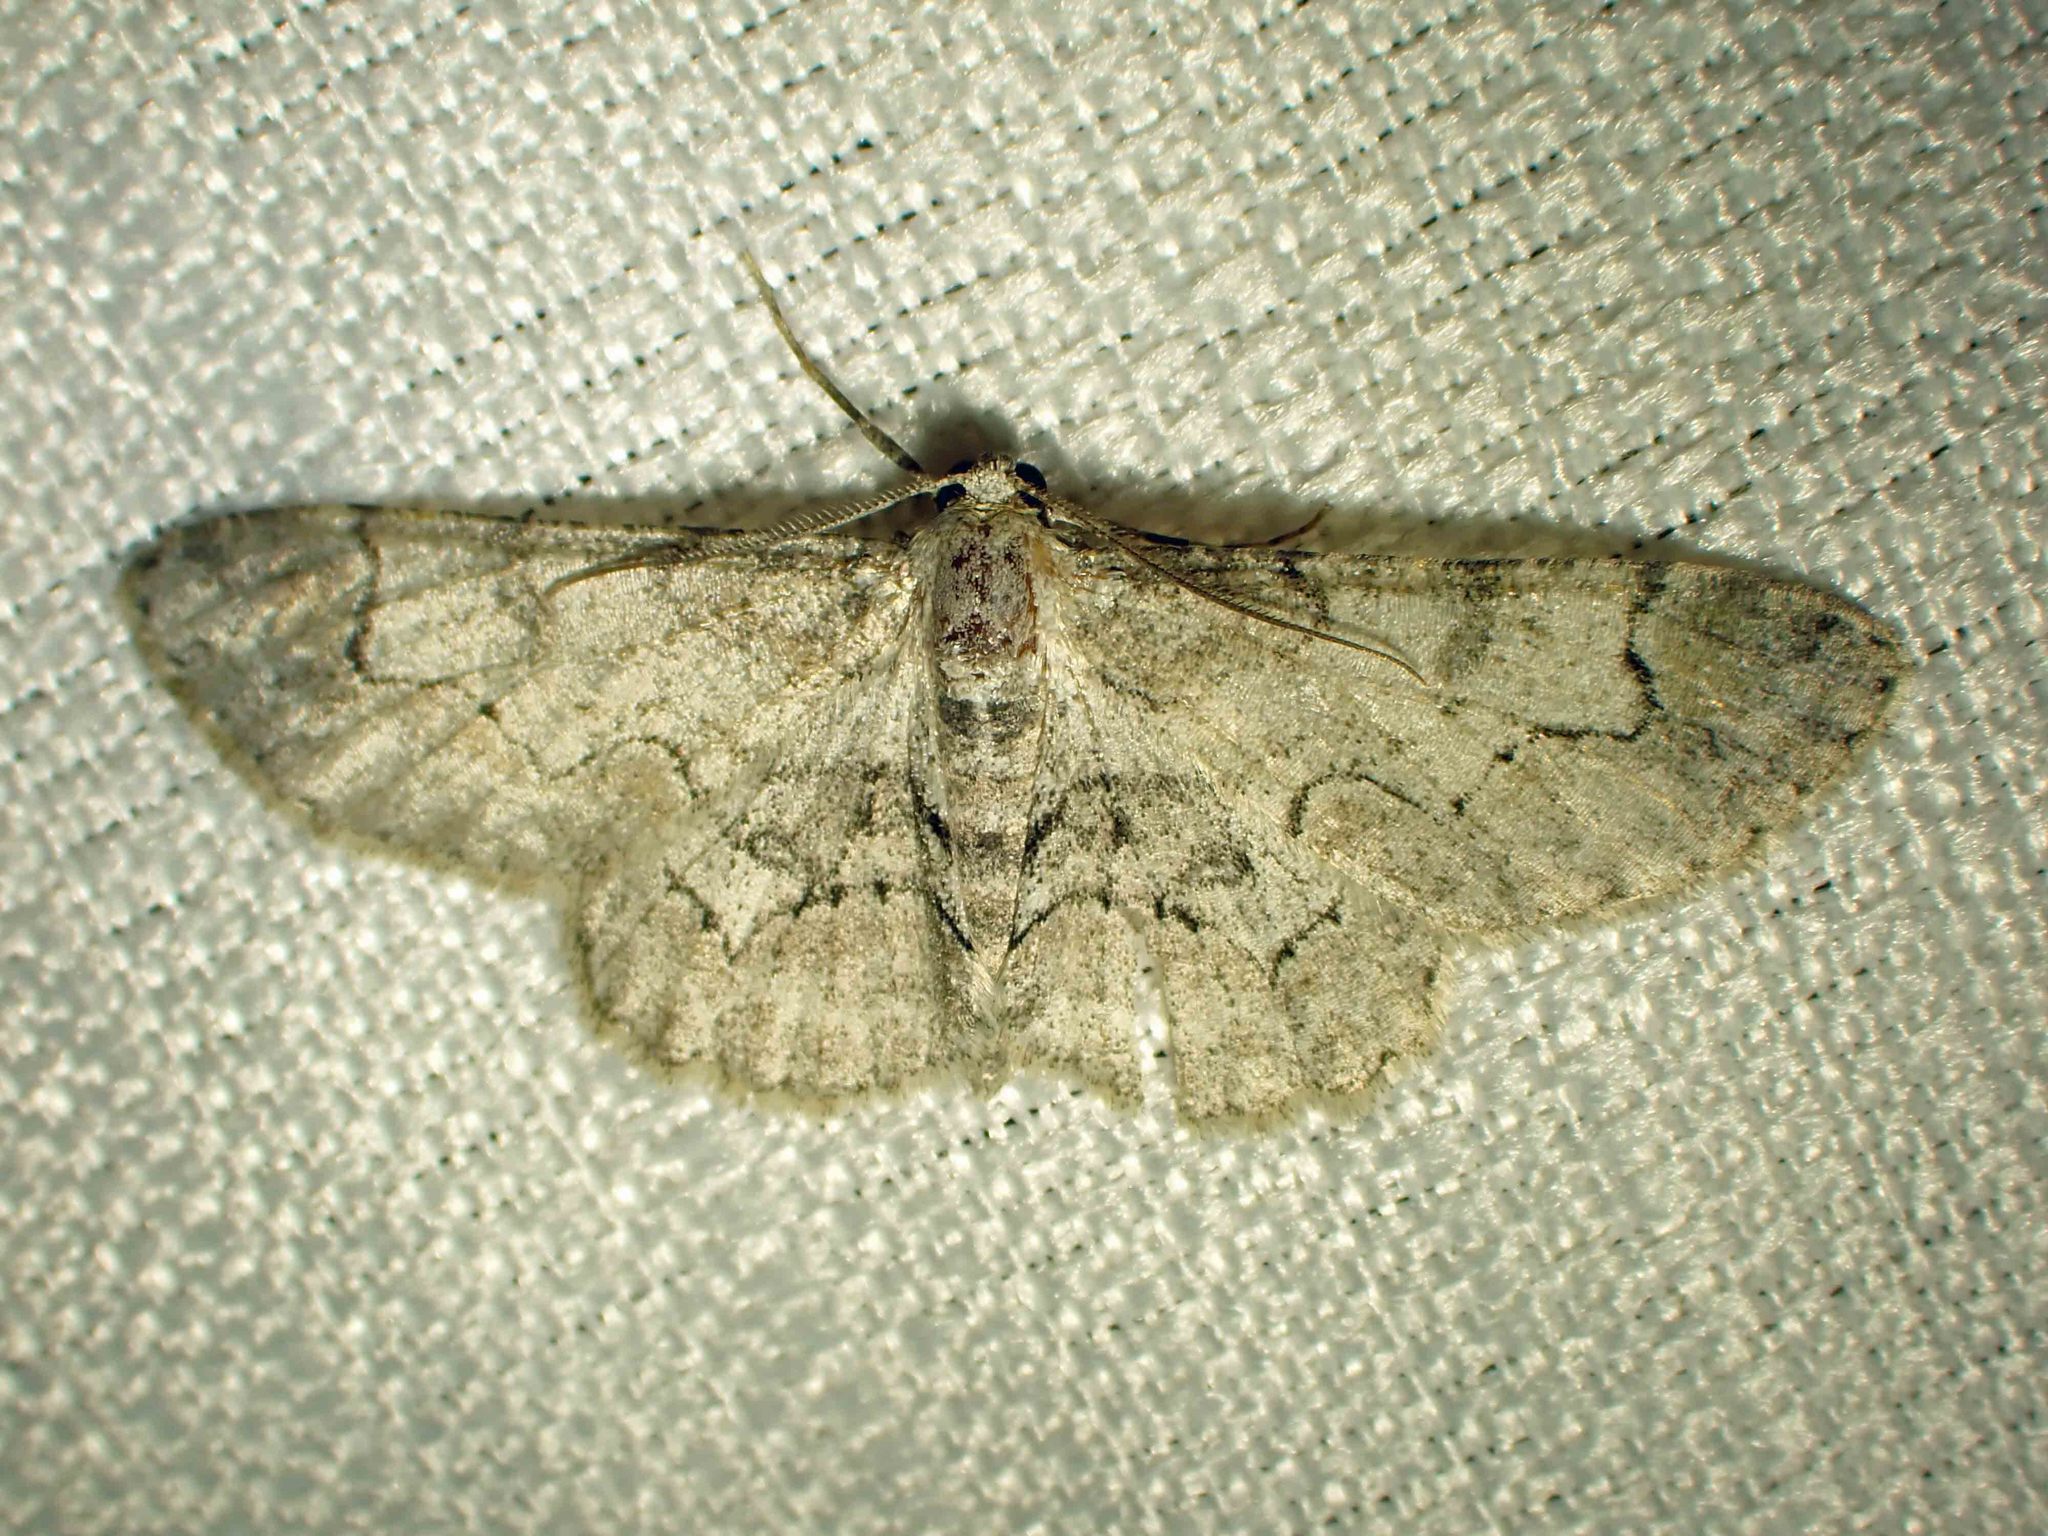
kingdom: Animalia
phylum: Arthropoda
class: Insecta
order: Lepidoptera
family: Geometridae
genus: Iridopsis
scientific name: Iridopsis larvaria
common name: Bent-line gray
